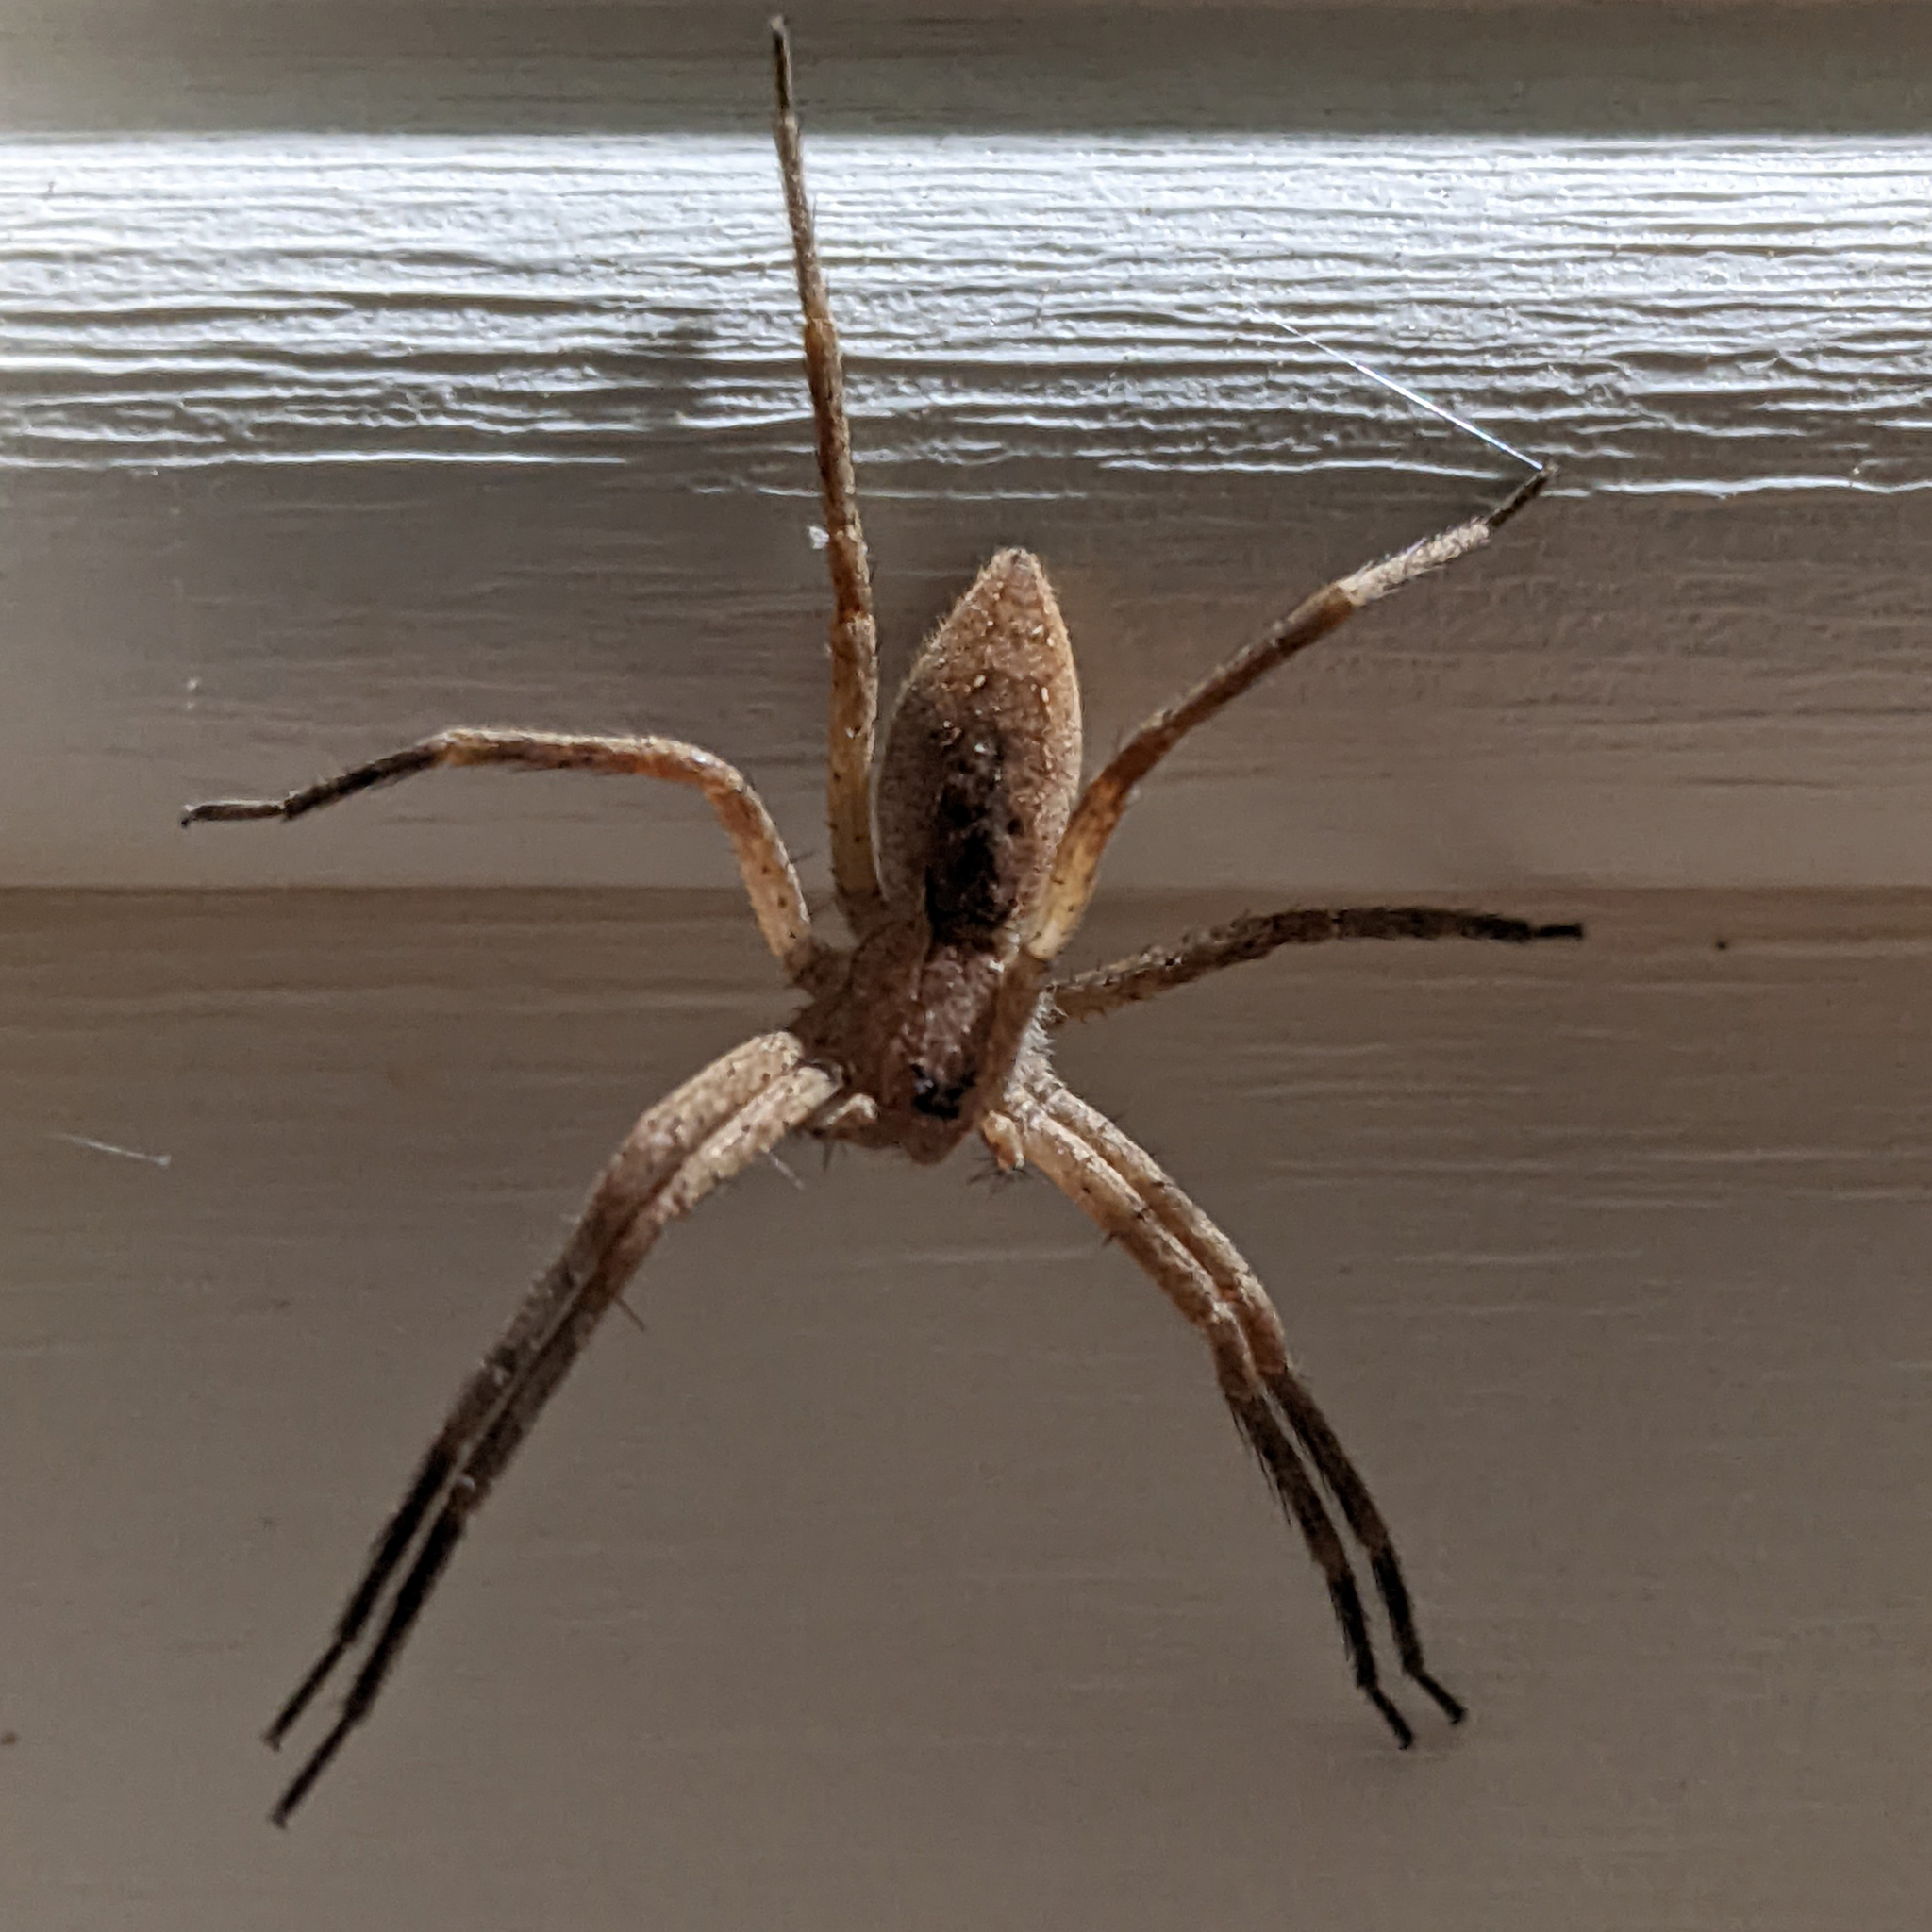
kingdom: Animalia
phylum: Arthropoda
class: Arachnida
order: Araneae
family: Pisauridae
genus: Pisaurina
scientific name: Pisaurina mira
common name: American nursery web spider
